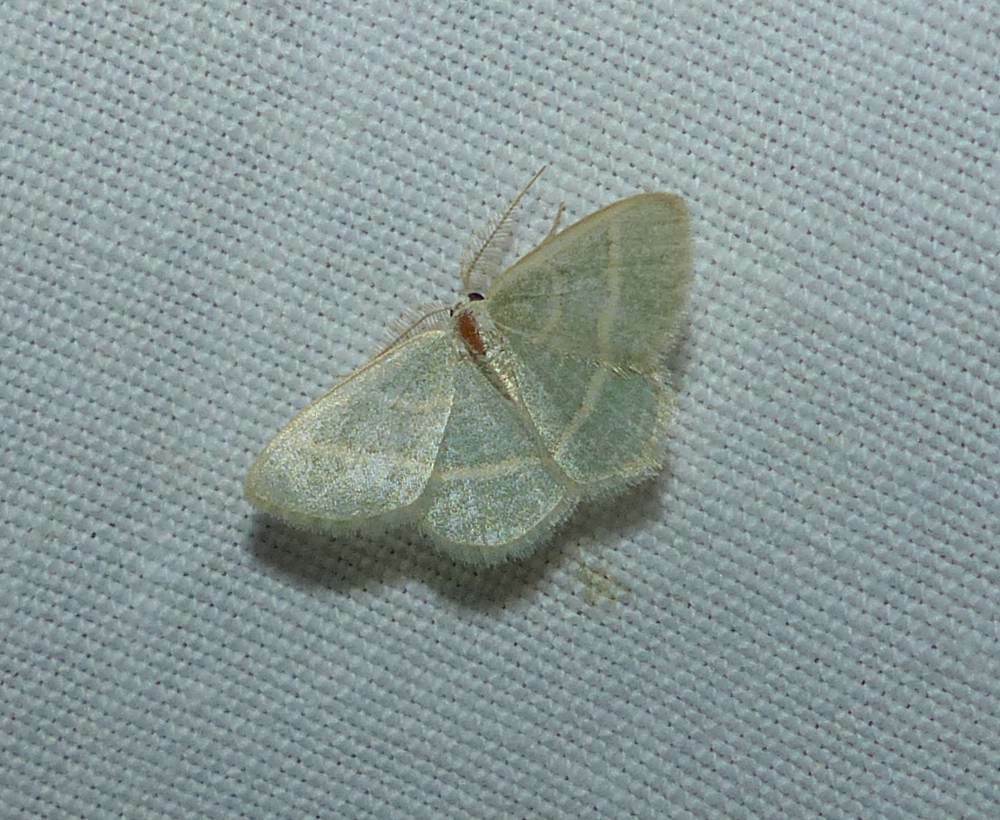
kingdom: Animalia
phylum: Arthropoda
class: Insecta
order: Lepidoptera
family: Geometridae
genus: Chlorochlamys
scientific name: Chlorochlamys chloroleucaria
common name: Blackberry looper
